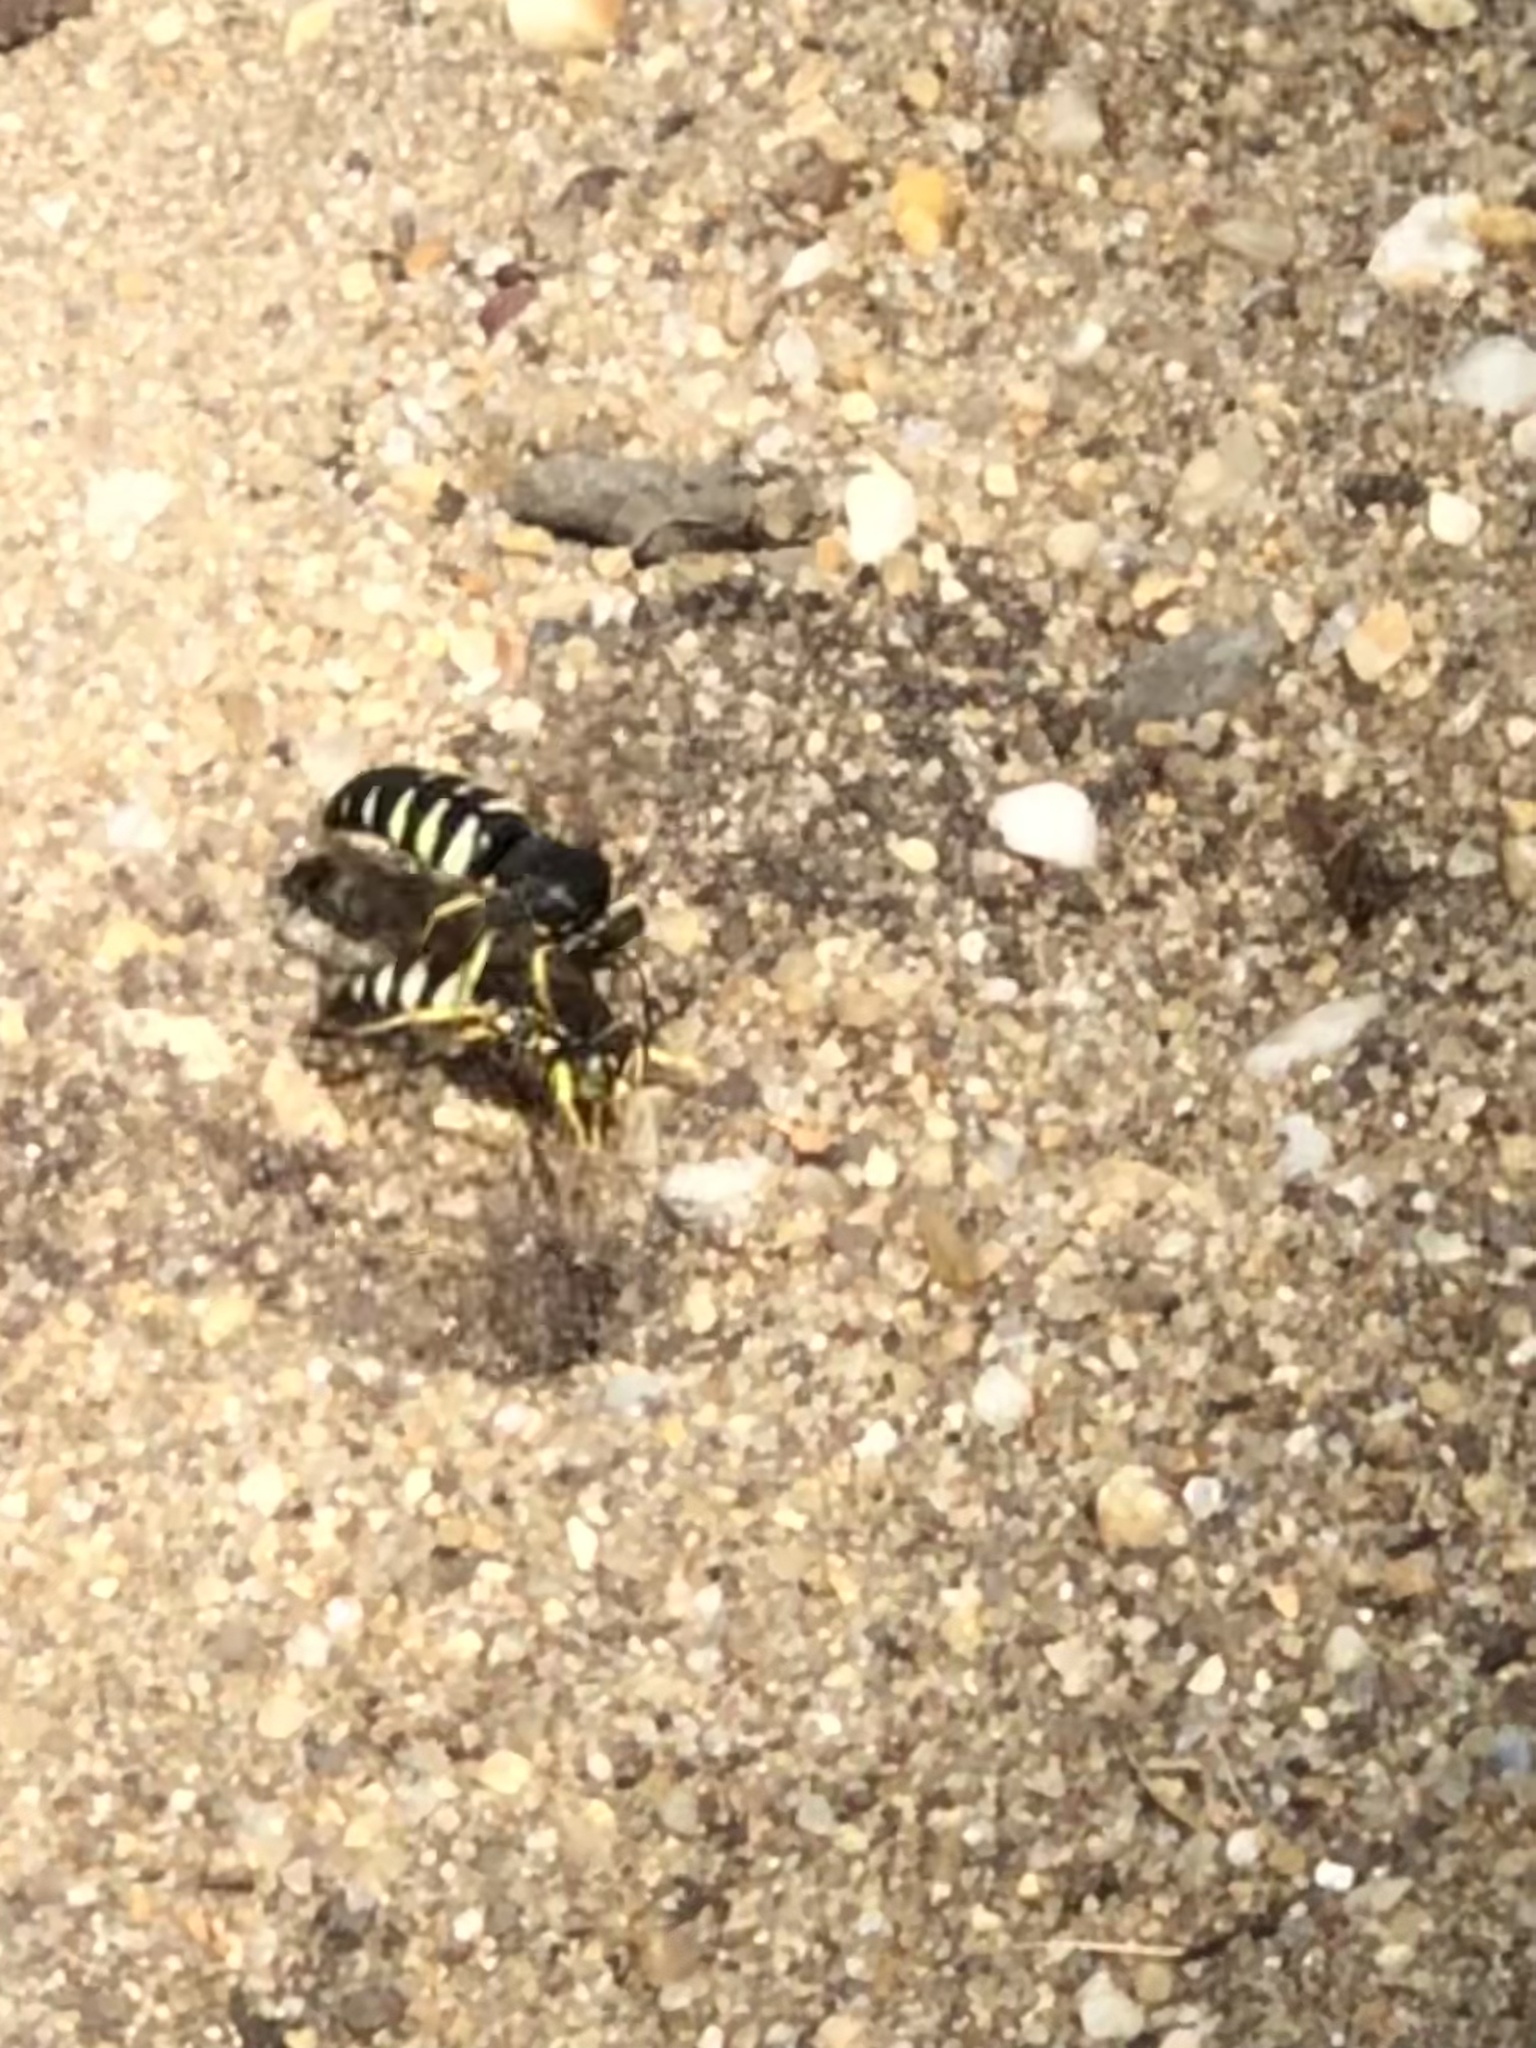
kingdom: Animalia
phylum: Arthropoda
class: Insecta
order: Hymenoptera
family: Crabronidae
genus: Bicyrtes
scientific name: Bicyrtes quadrifasciatus
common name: Four-banded stink bug hunter wasp
